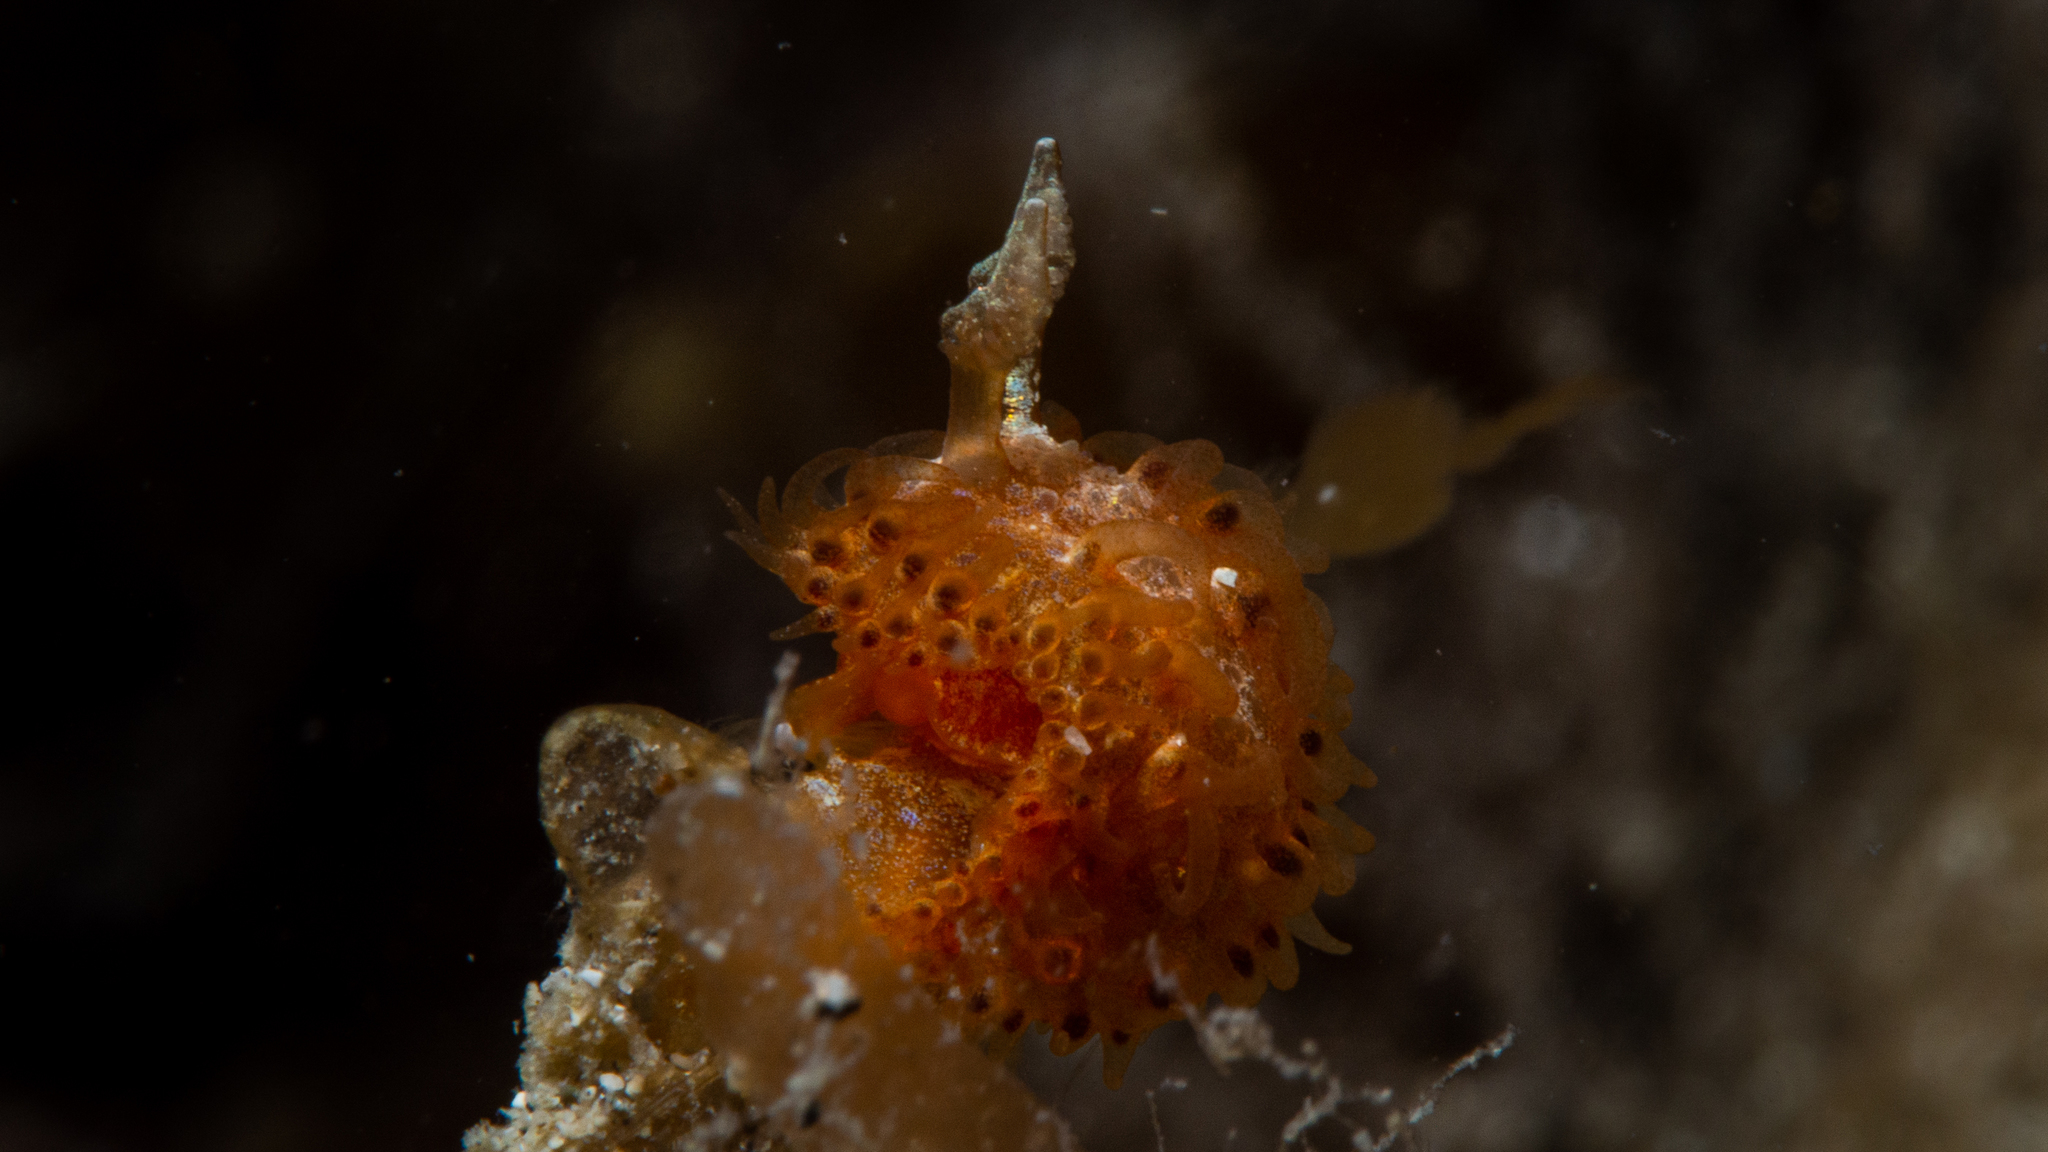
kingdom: Animalia
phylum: Mollusca
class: Gastropoda
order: Nudibranchia
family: Madrellidae
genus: Madrella
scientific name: Madrella ferruginosa
